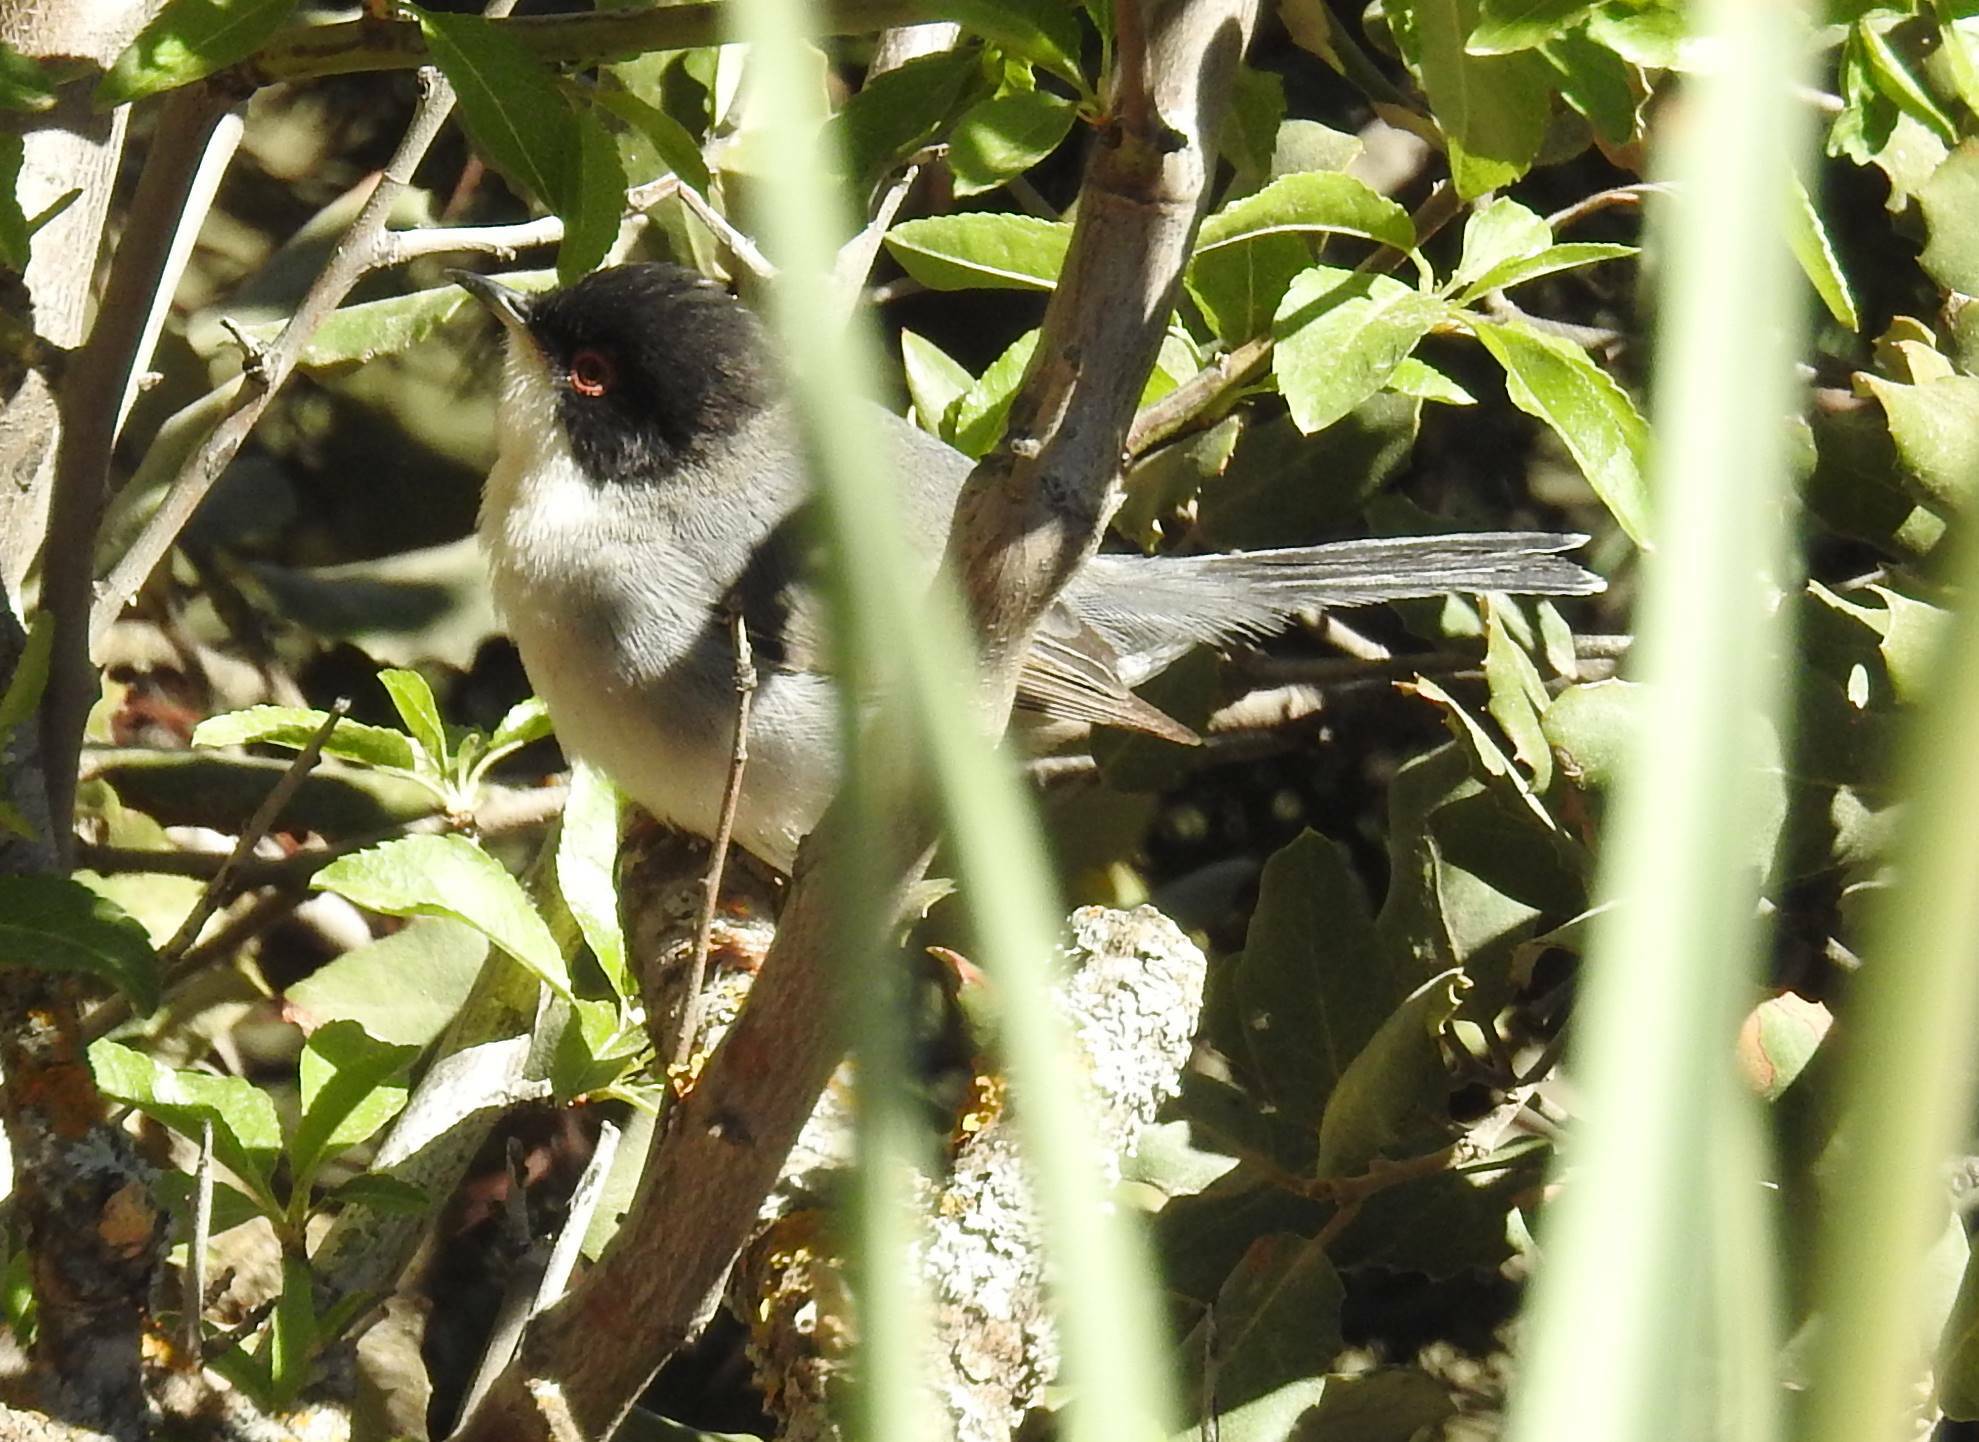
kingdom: Animalia
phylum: Chordata
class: Aves
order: Passeriformes
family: Sylviidae
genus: Curruca
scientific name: Curruca melanocephala
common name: Sardinian warbler
